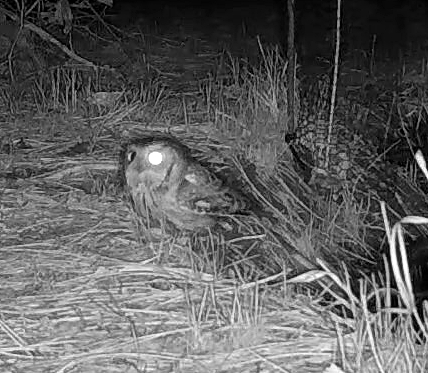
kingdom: Animalia
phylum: Chordata
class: Aves
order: Strigiformes
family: Strigidae
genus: Megascops
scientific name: Megascops asio
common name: Eastern screech-owl
